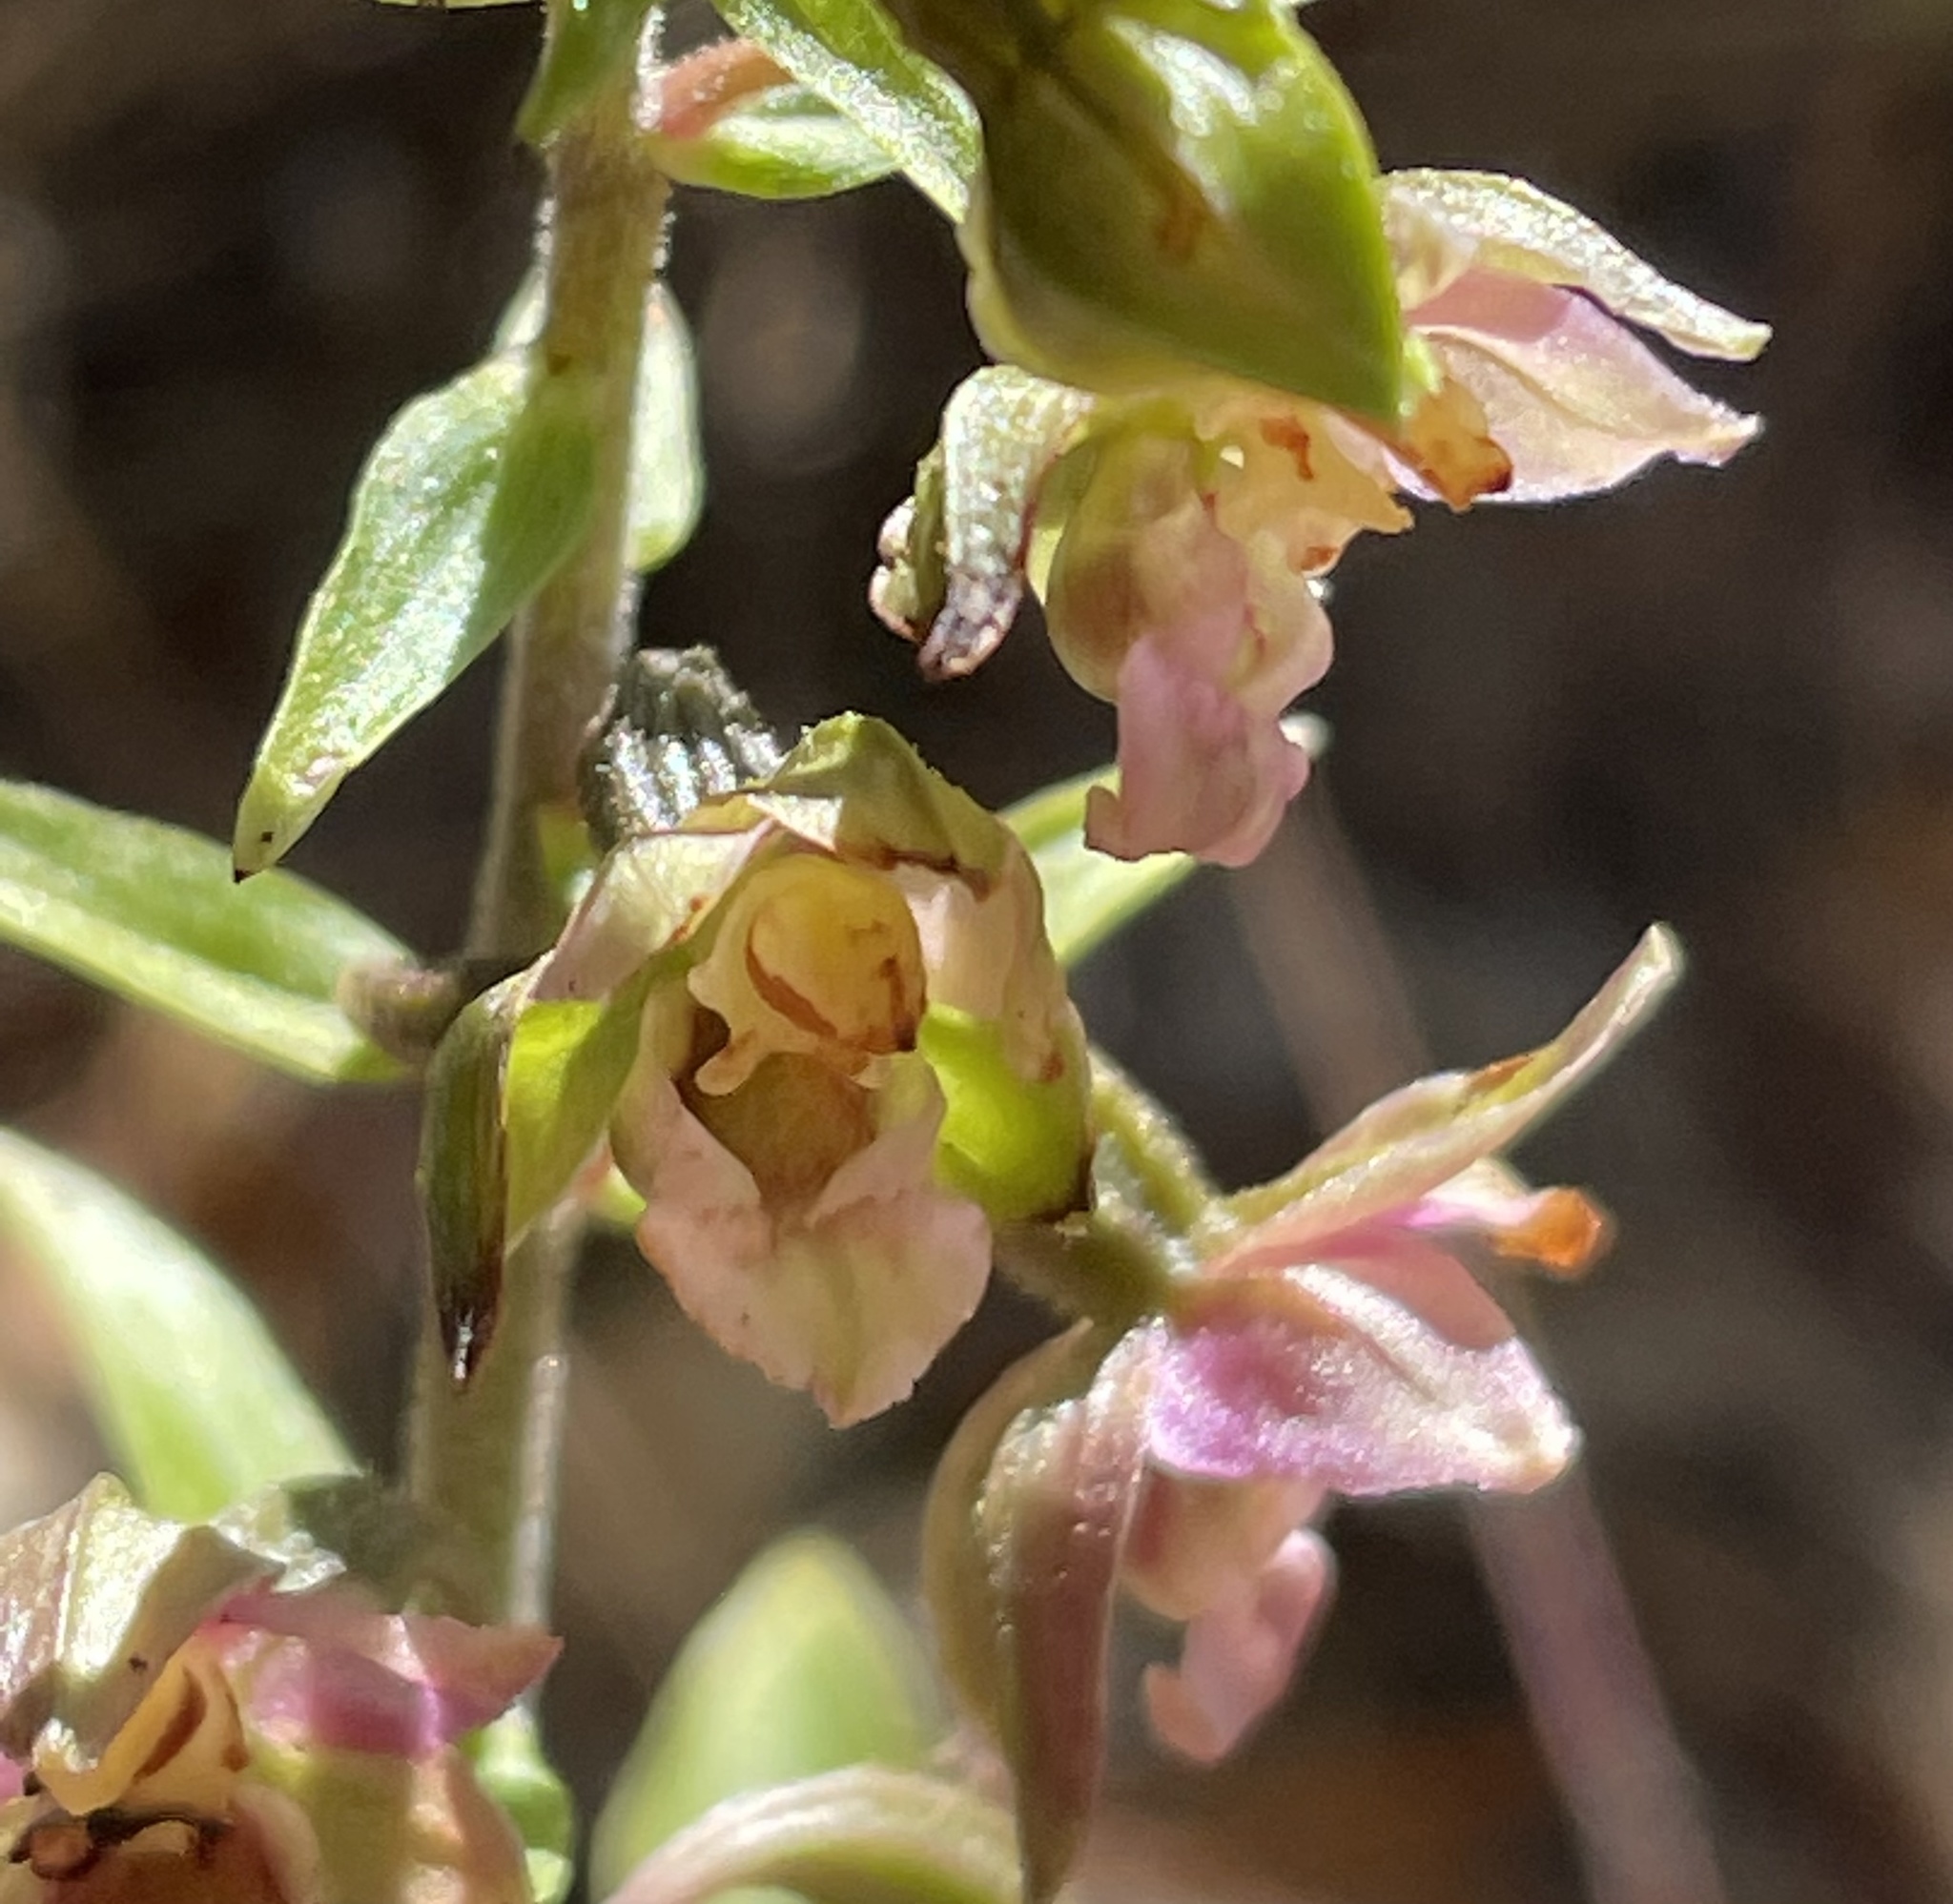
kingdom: Plantae
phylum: Tracheophyta
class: Liliopsida
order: Asparagales
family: Orchidaceae
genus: Epipactis
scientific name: Epipactis helleborine
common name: Broad-leaved helleborine
